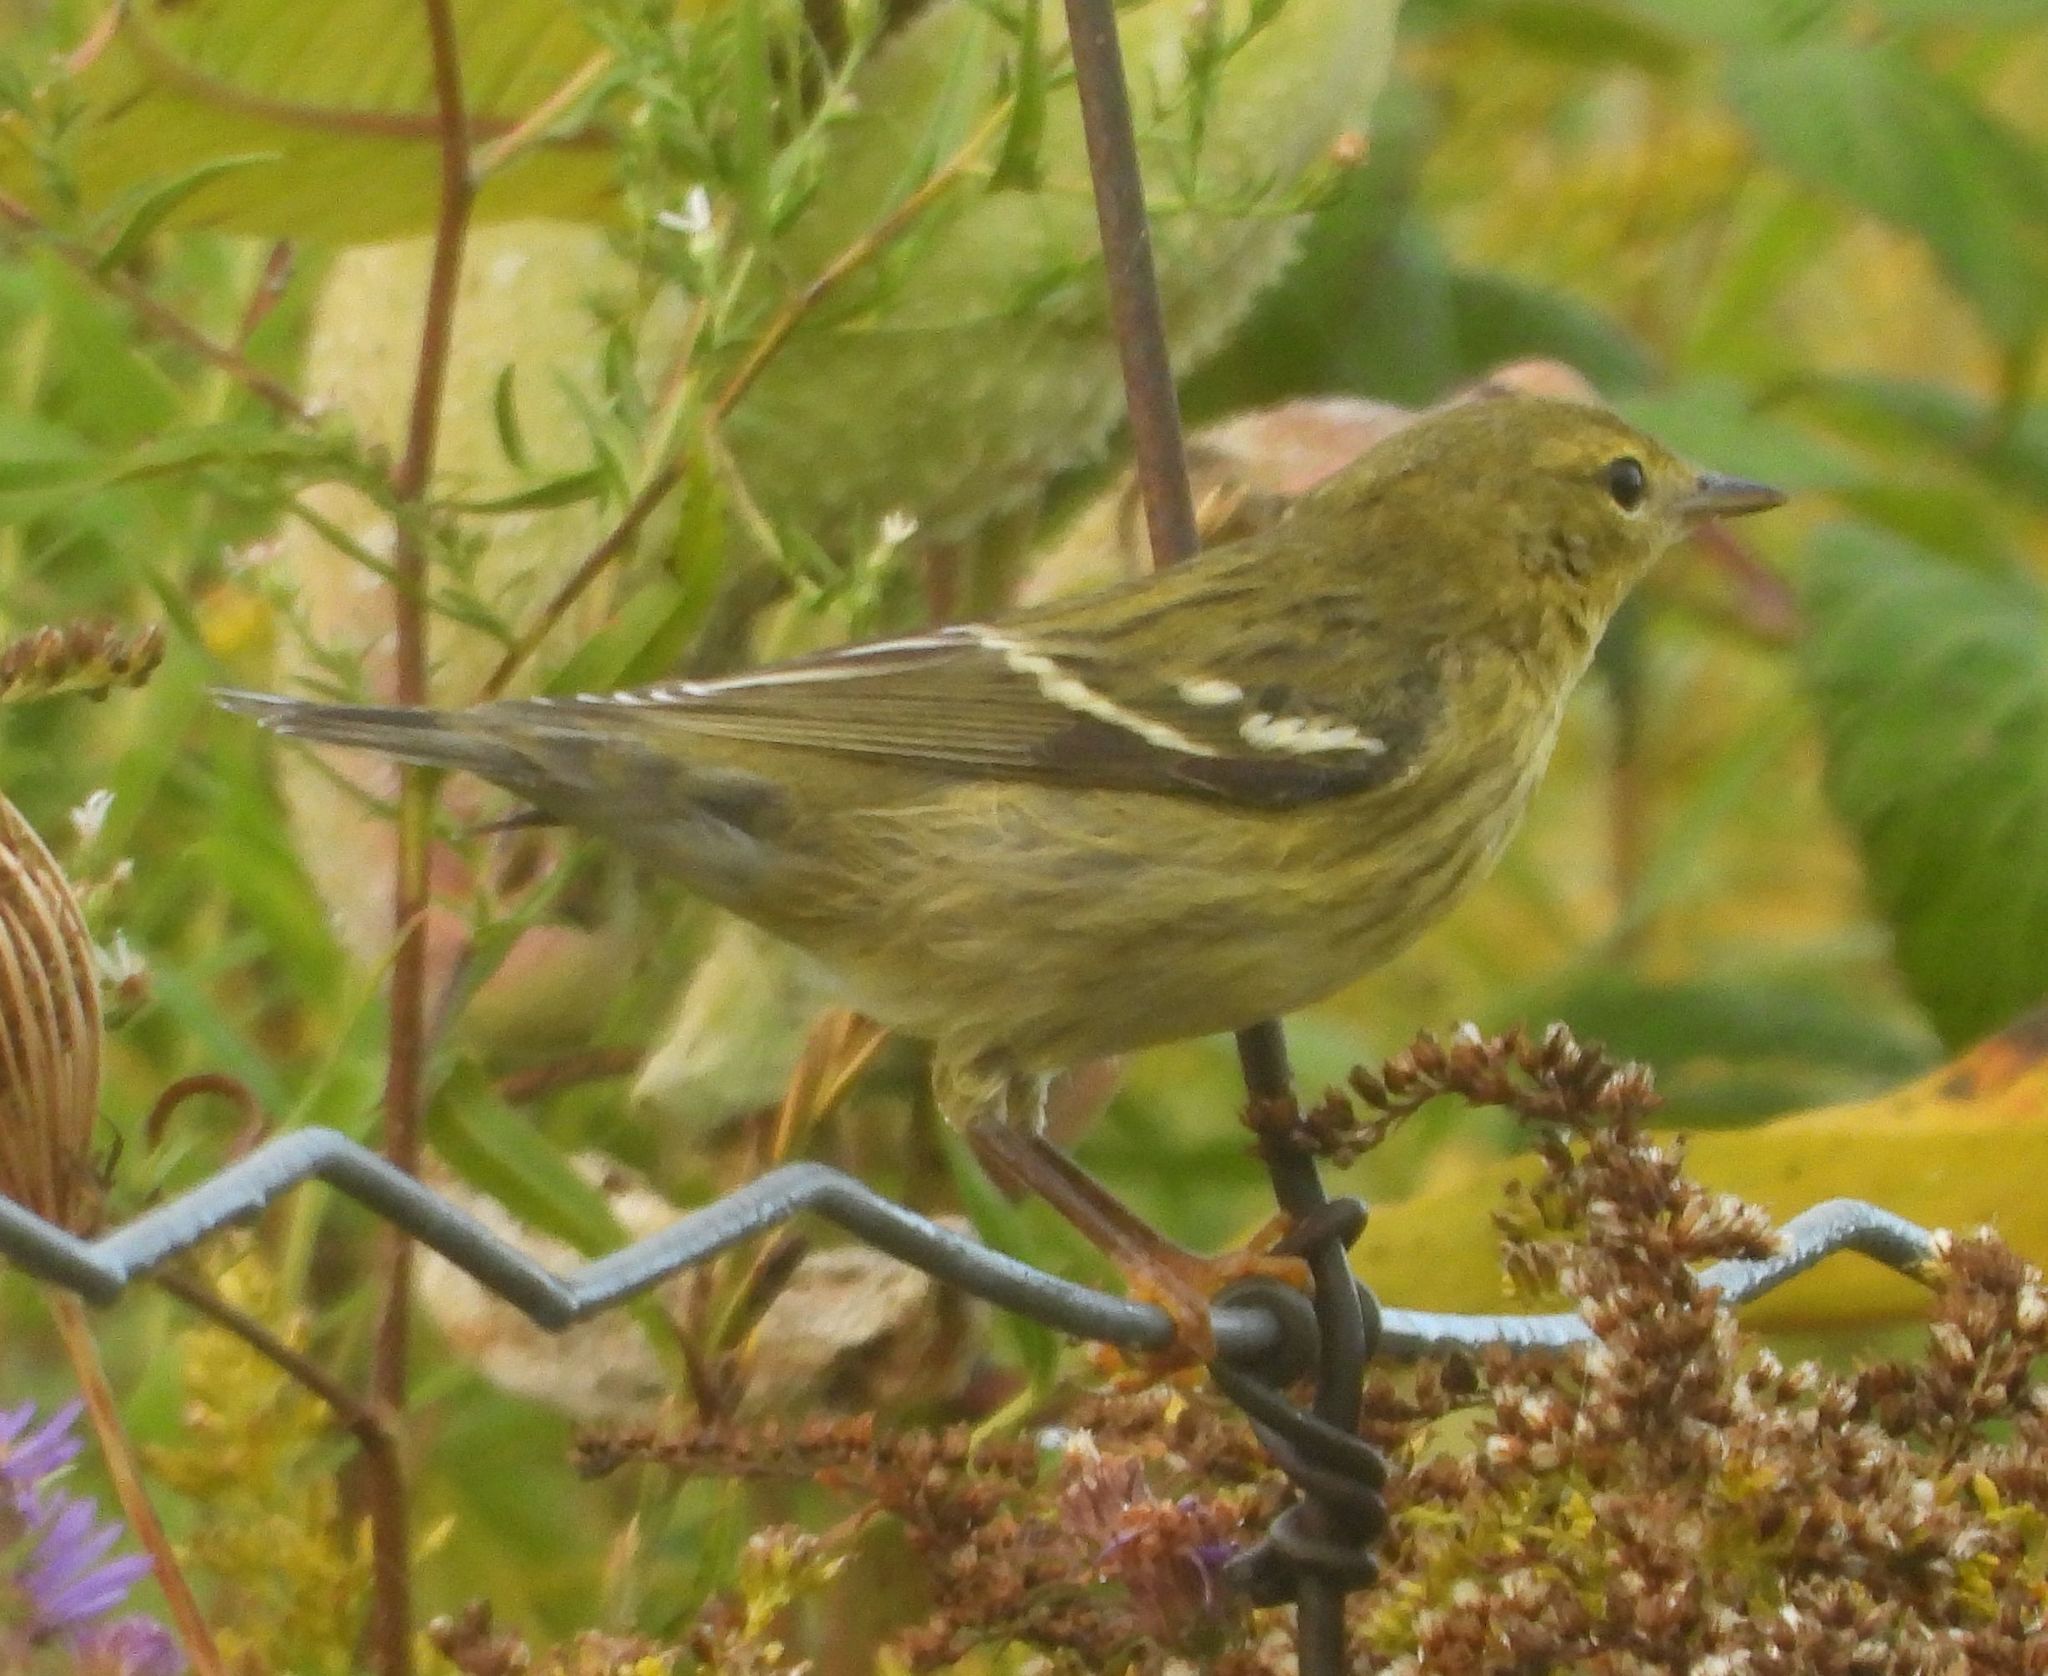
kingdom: Animalia
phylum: Chordata
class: Aves
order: Passeriformes
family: Parulidae
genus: Setophaga
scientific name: Setophaga striata
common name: Blackpoll warbler
